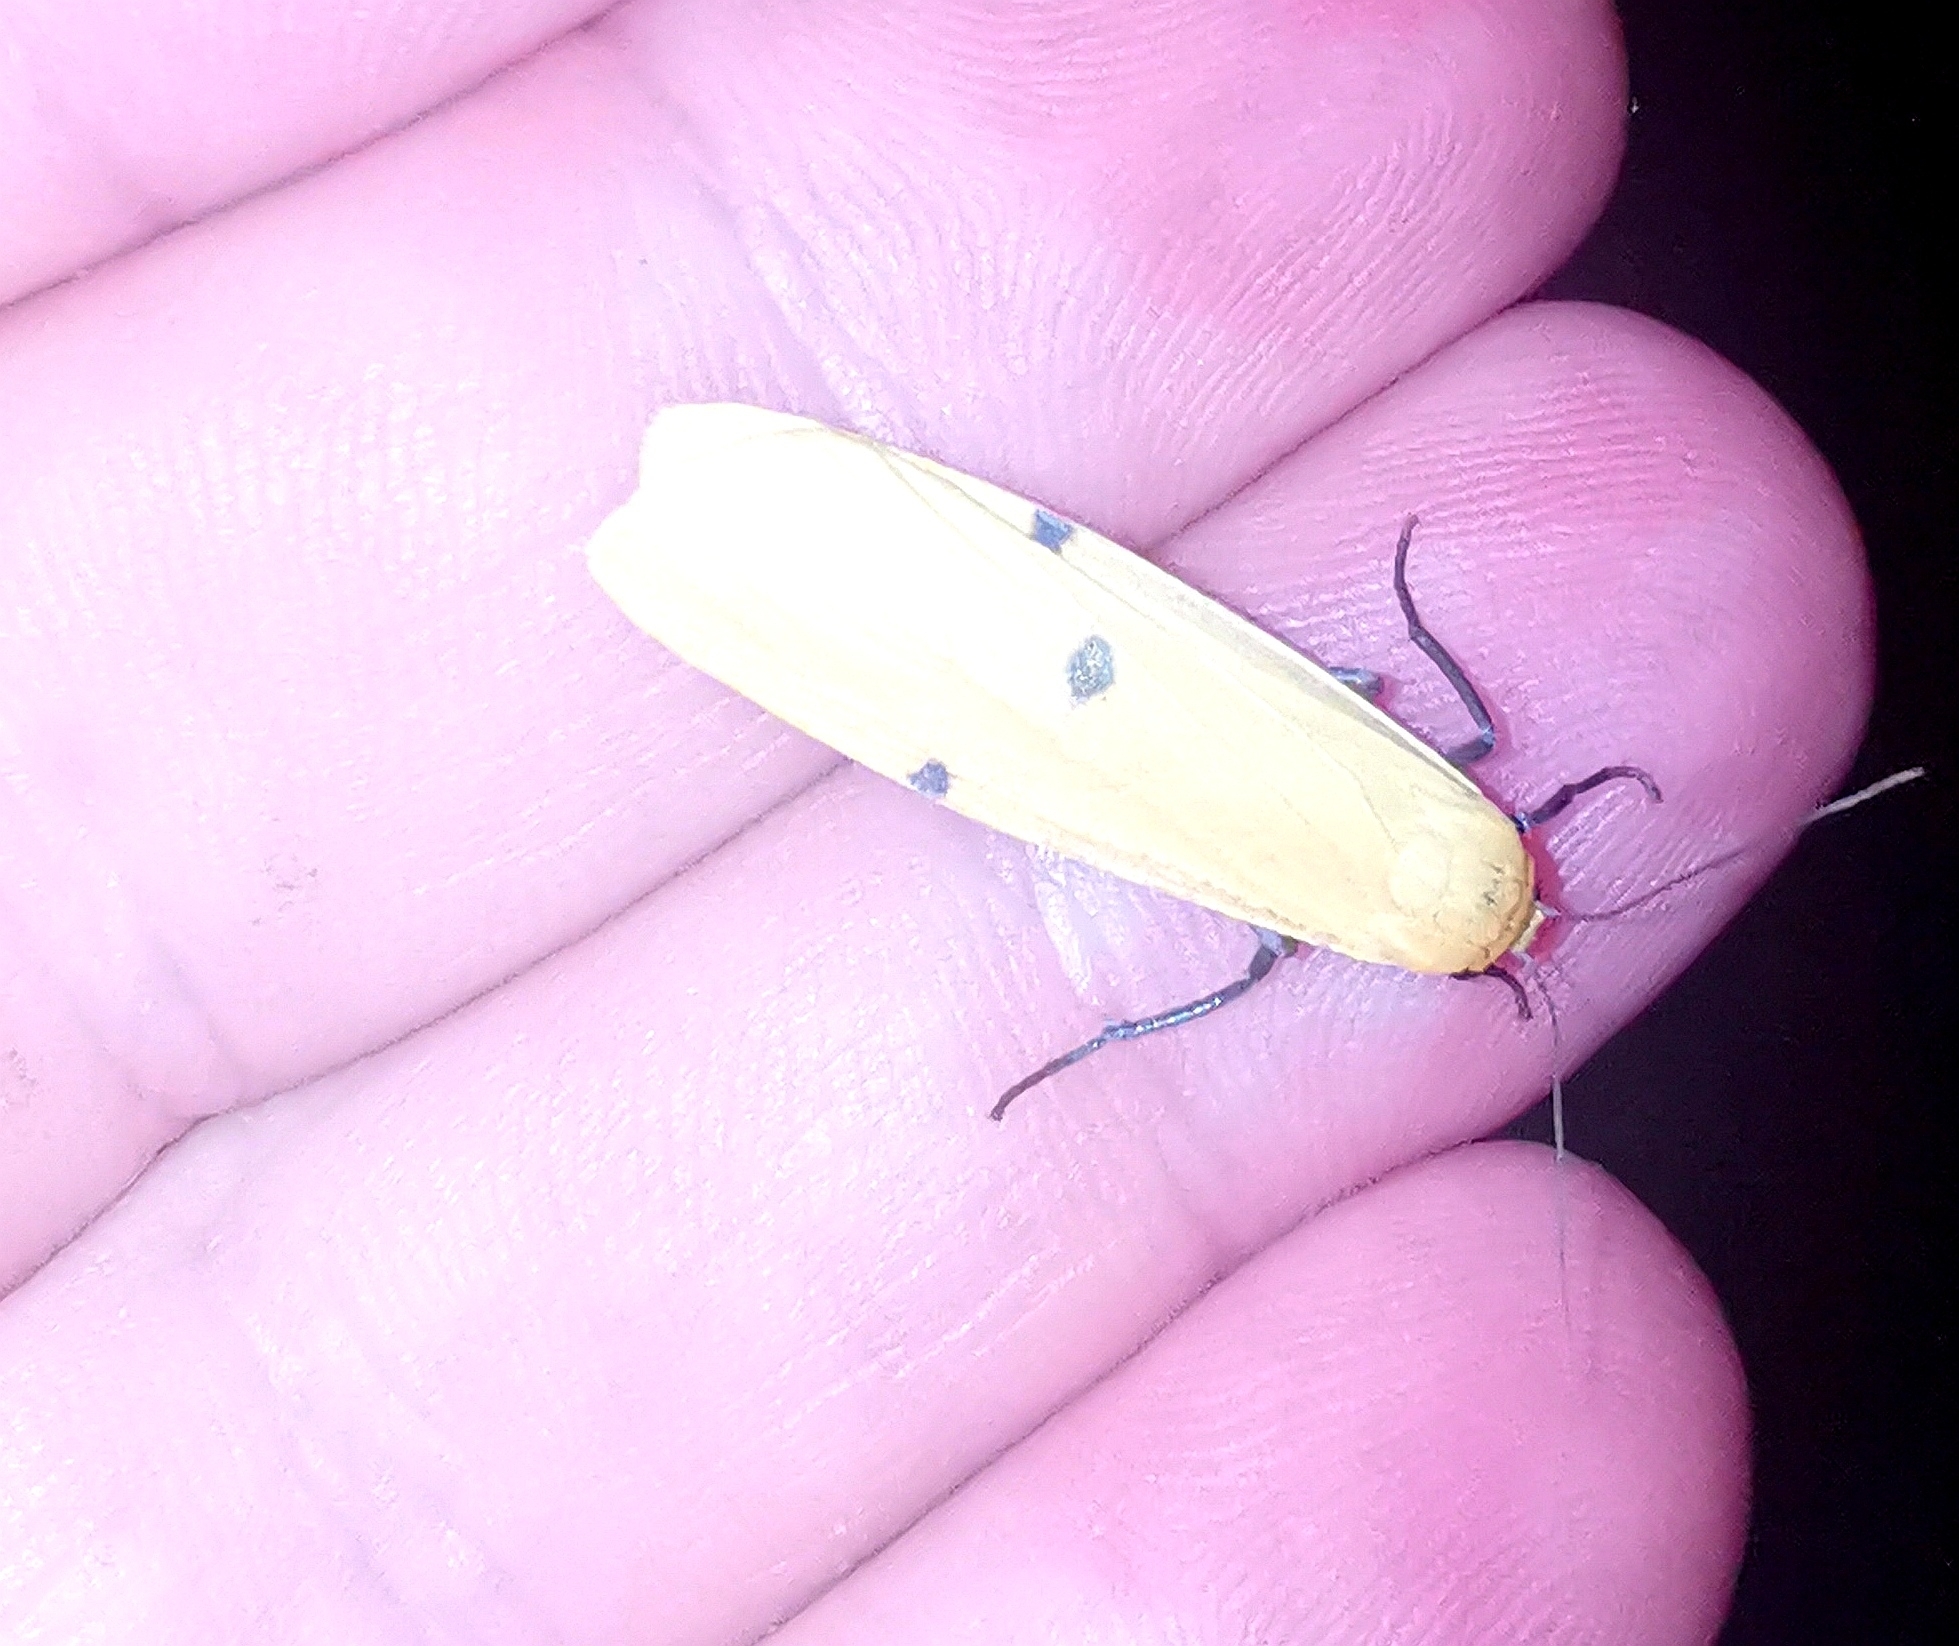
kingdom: Animalia
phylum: Arthropoda
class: Insecta
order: Lepidoptera
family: Erebidae
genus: Lithosia
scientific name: Lithosia quadra
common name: Four-spotted footman
